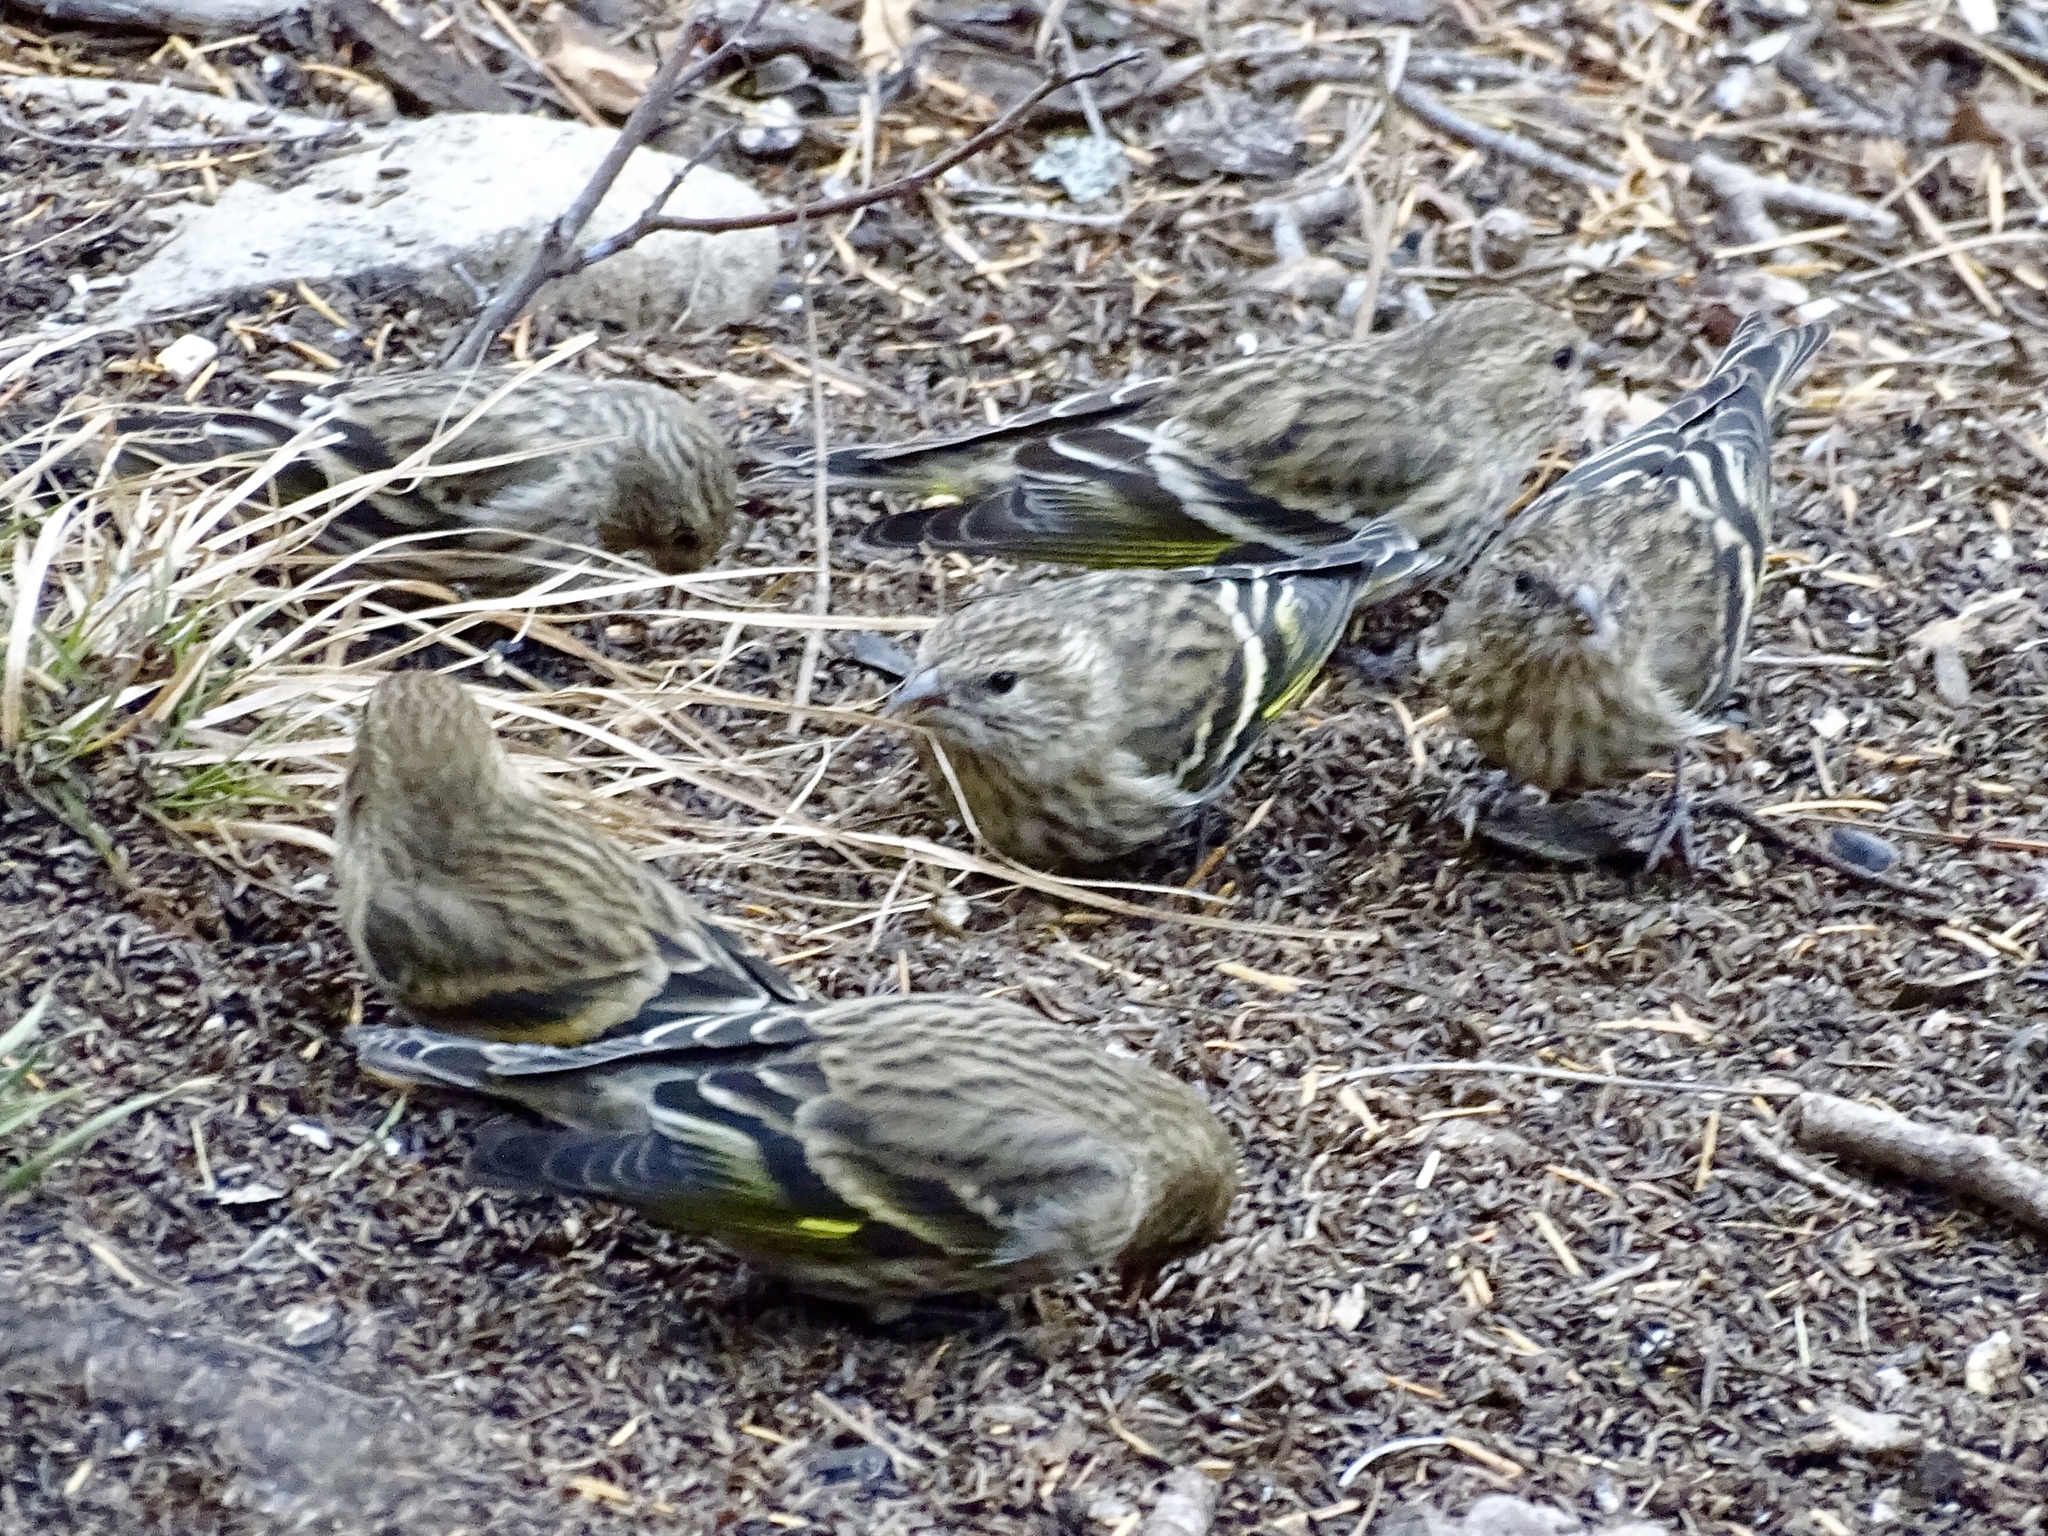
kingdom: Animalia
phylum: Chordata
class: Aves
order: Passeriformes
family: Fringillidae
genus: Spinus
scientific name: Spinus pinus
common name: Pine siskin
